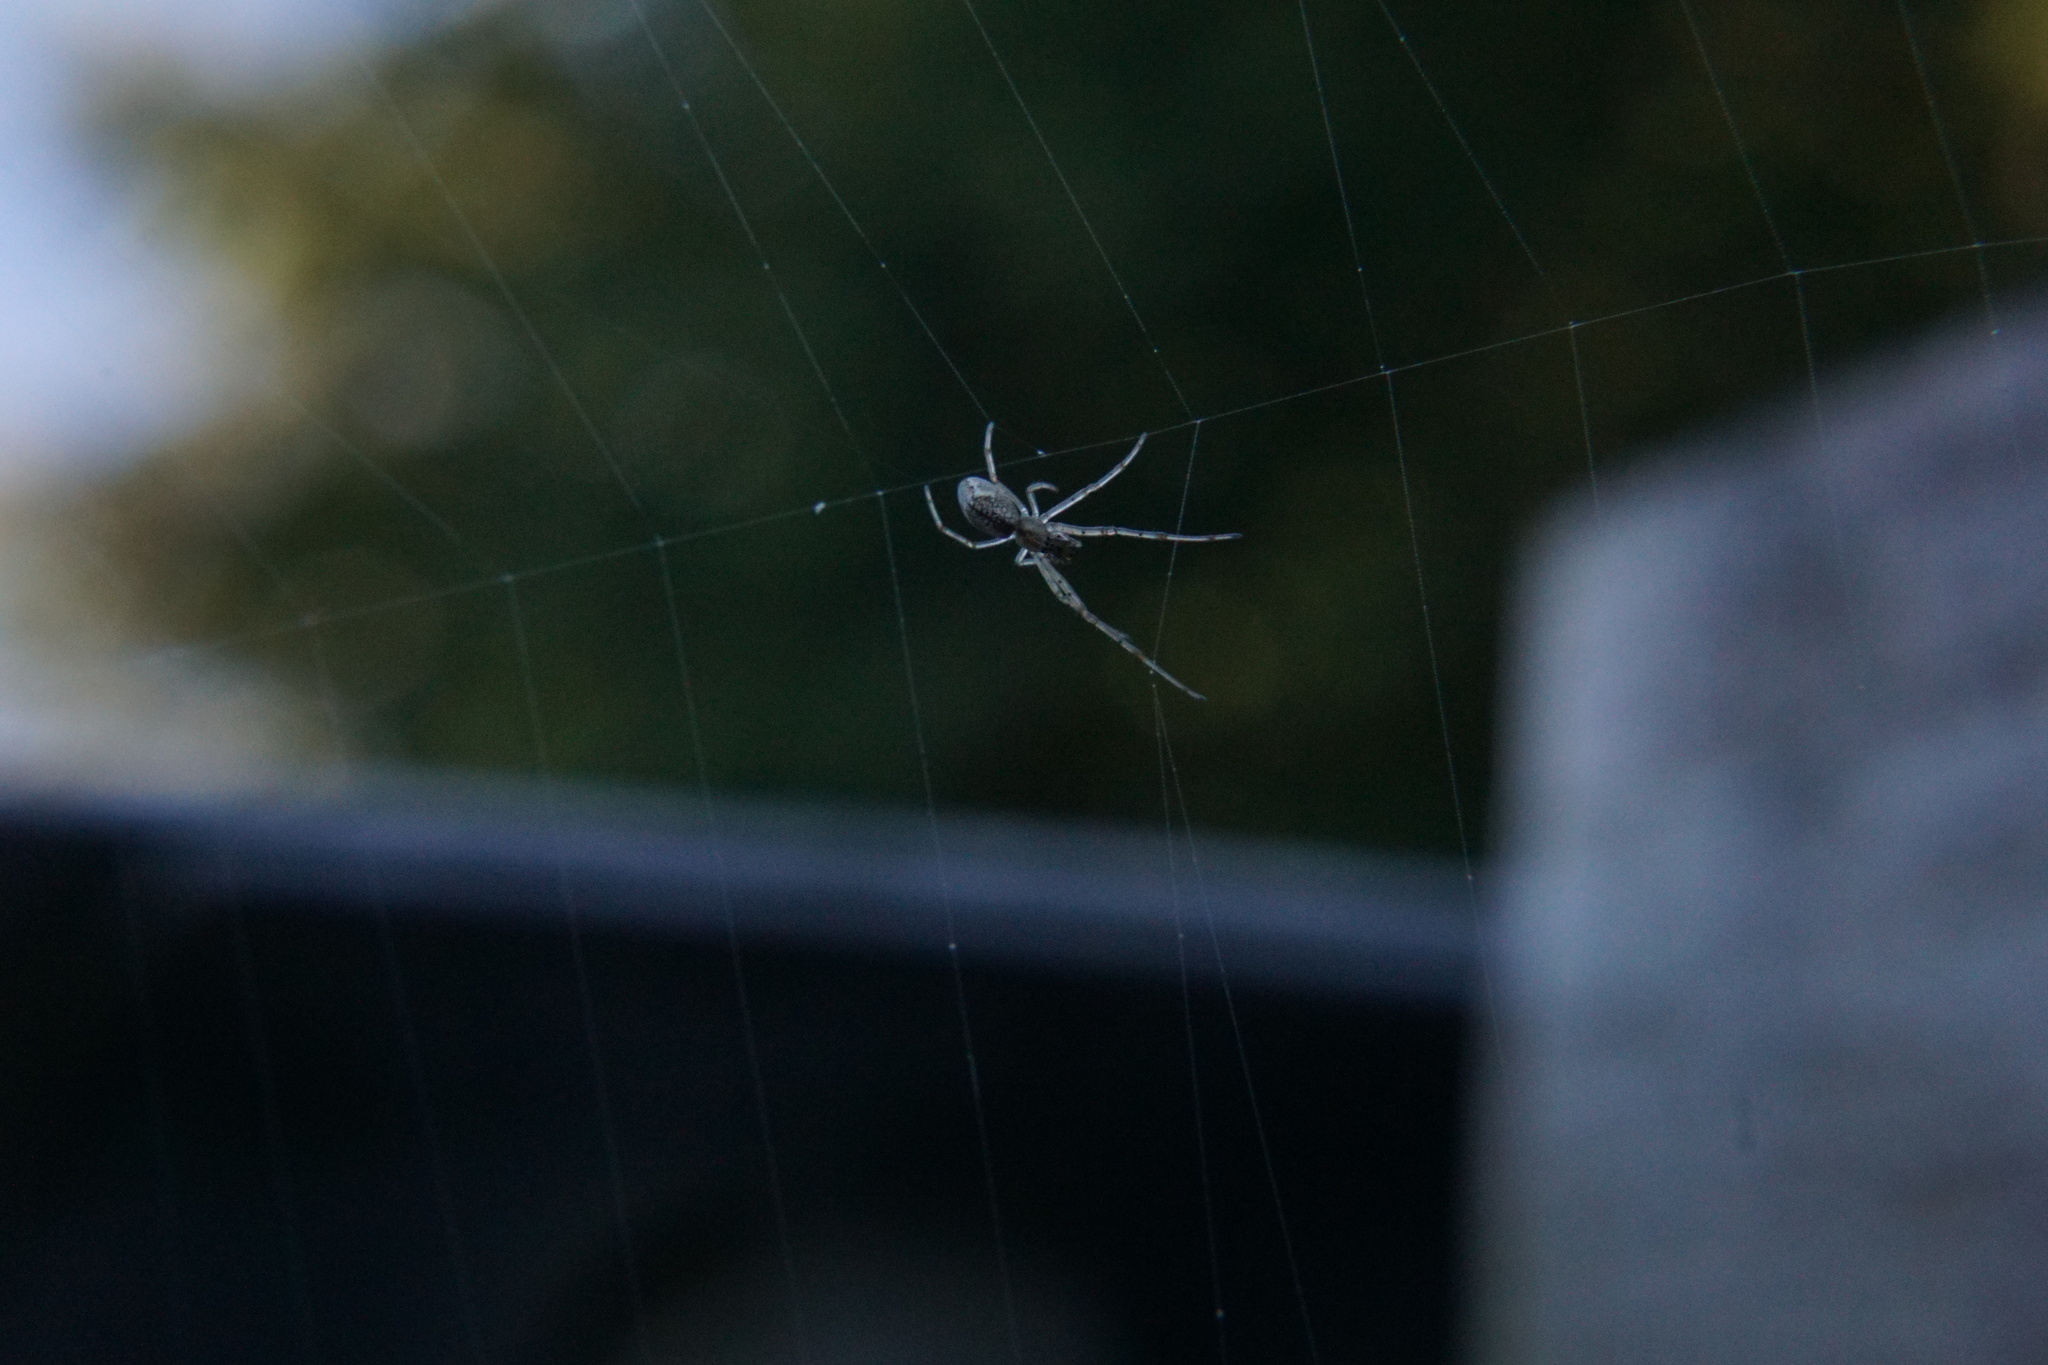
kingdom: Animalia
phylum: Arthropoda
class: Arachnida
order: Araneae
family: Tetragnathidae
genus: Tetragnatha
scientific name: Tetragnatha
